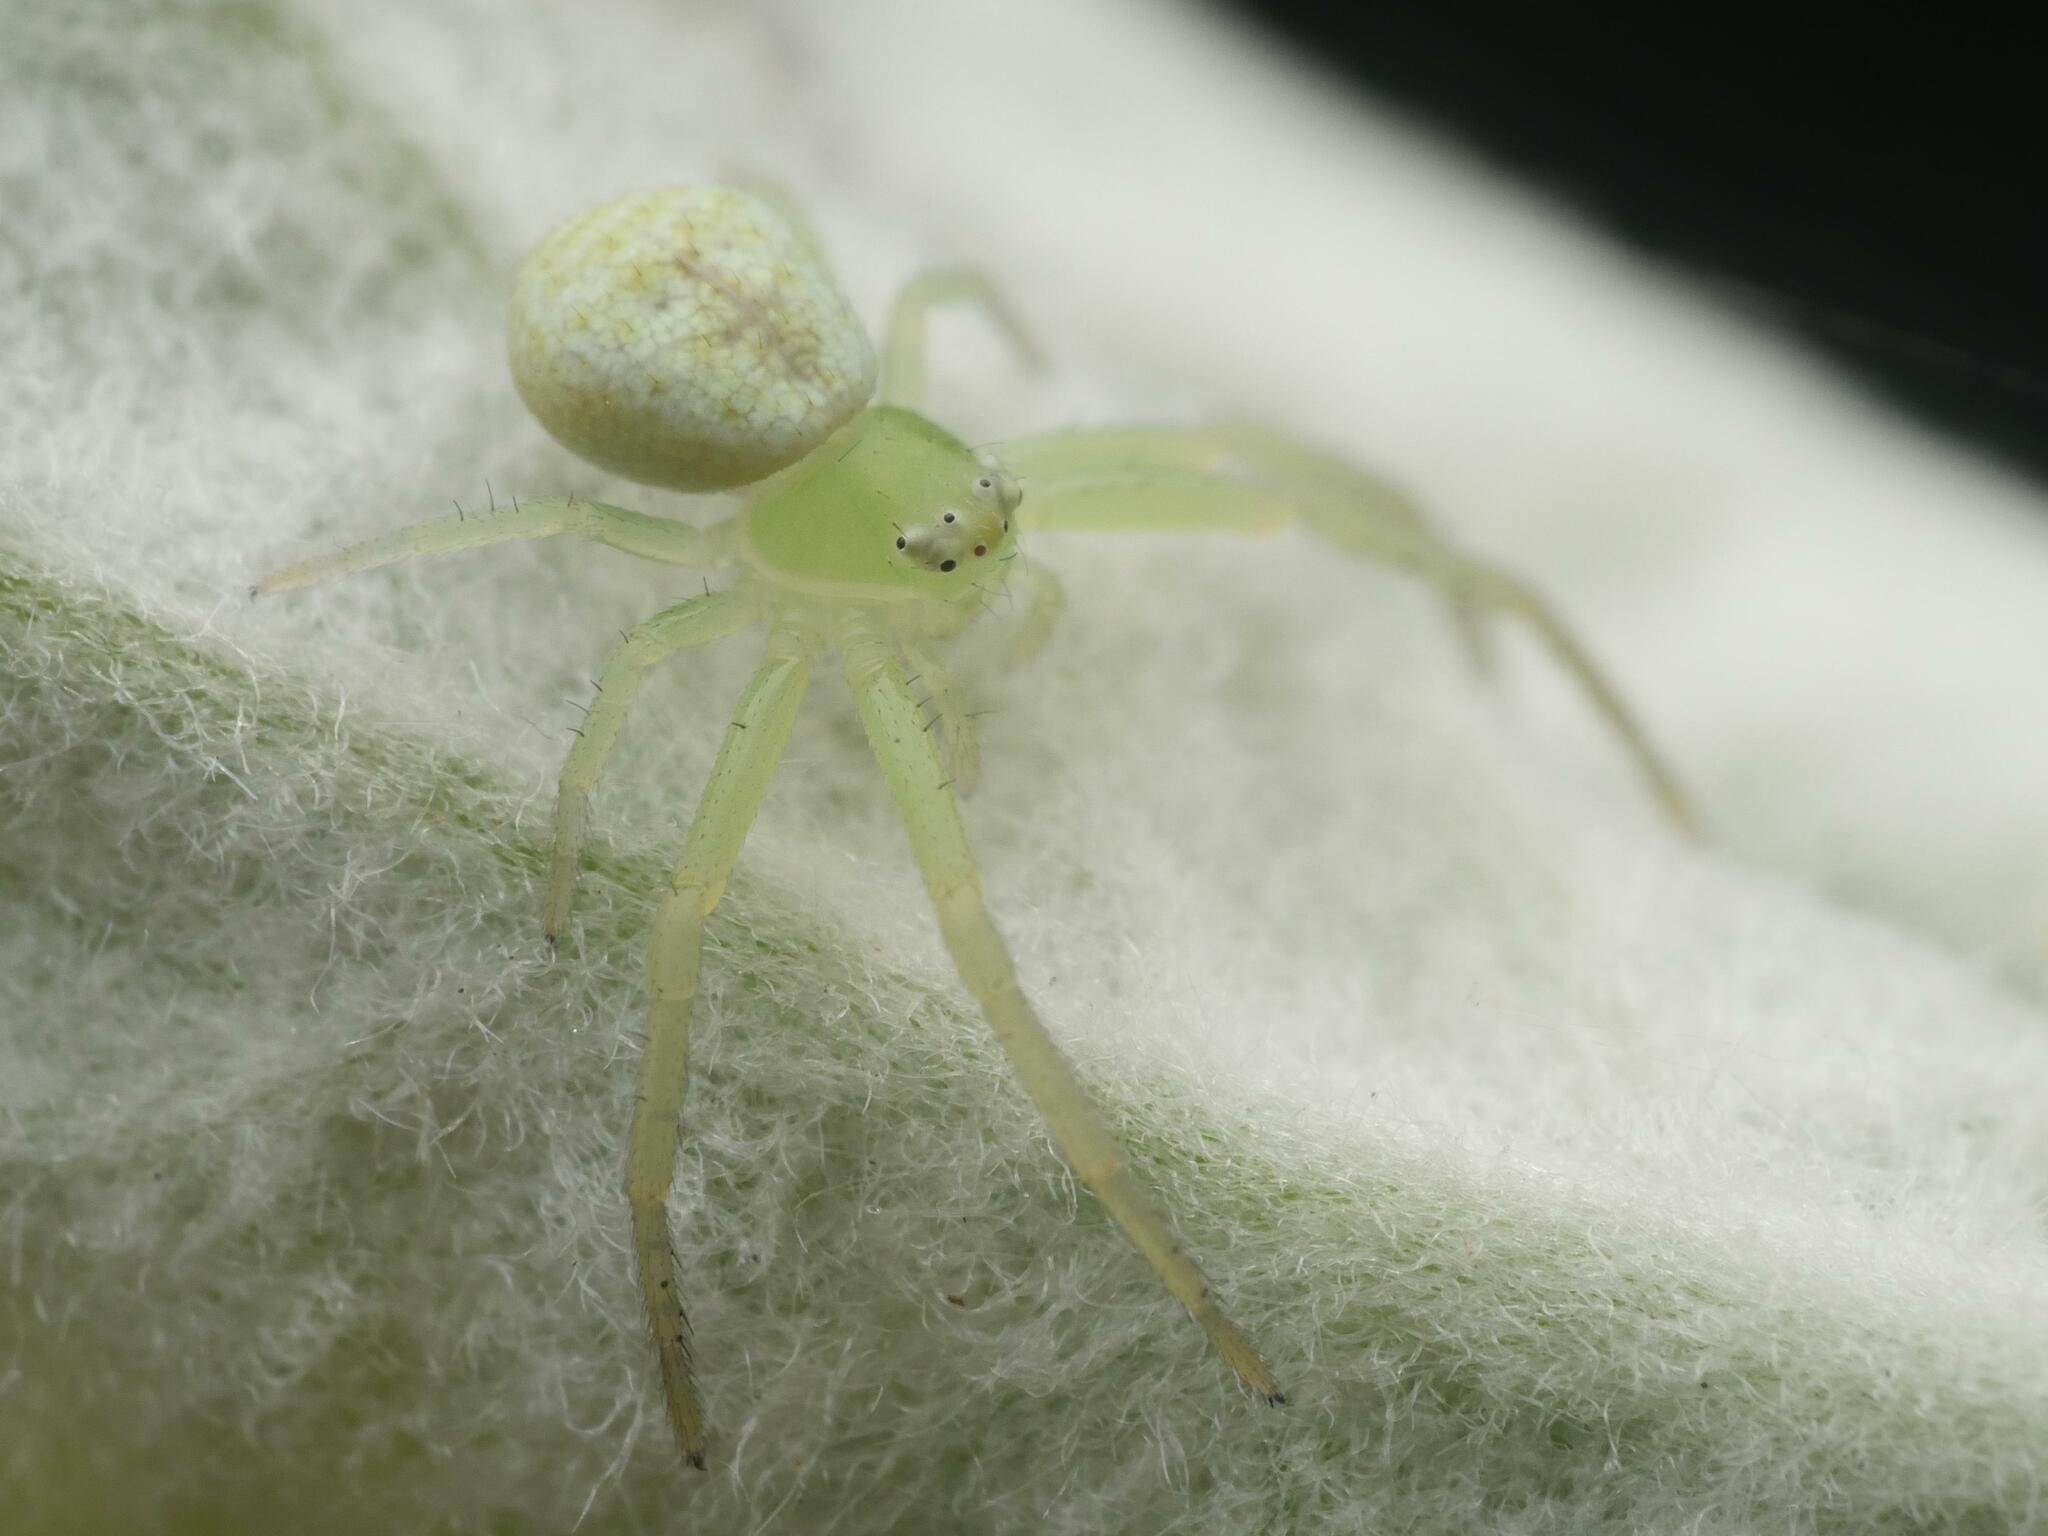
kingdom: Animalia
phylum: Arthropoda
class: Arachnida
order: Araneae
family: Thomisidae
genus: Ebrechtella
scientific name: Ebrechtella tricuspidata
